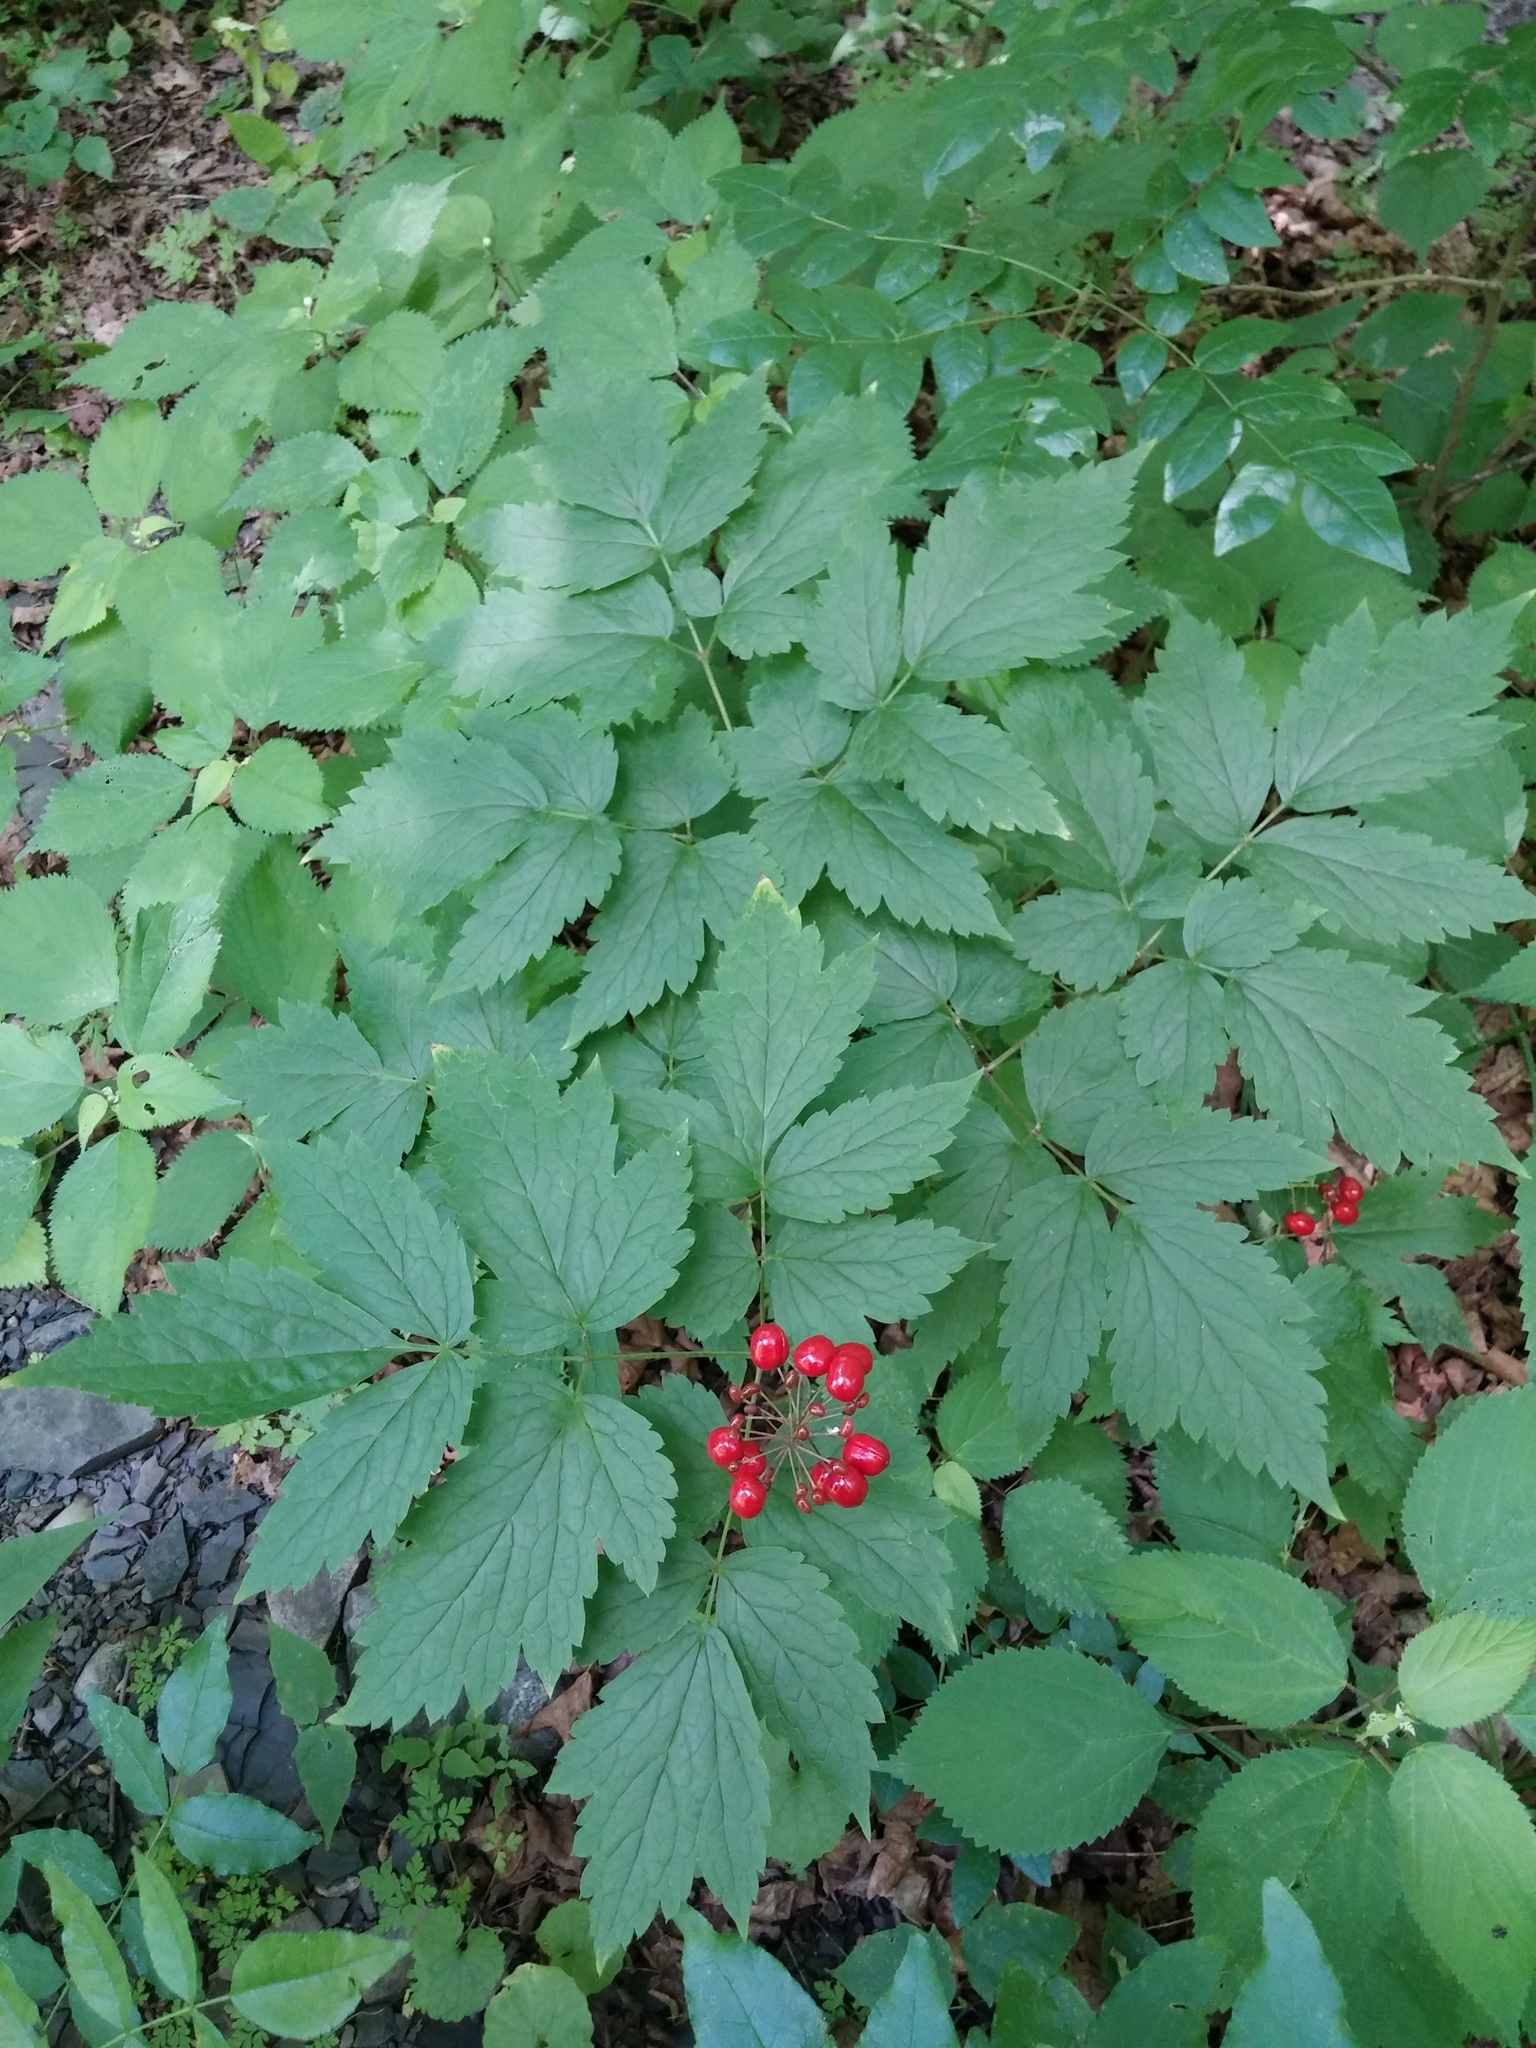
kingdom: Plantae
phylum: Tracheophyta
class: Magnoliopsida
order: Ranunculales
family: Ranunculaceae
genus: Actaea
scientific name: Actaea rubra
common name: Red baneberry
